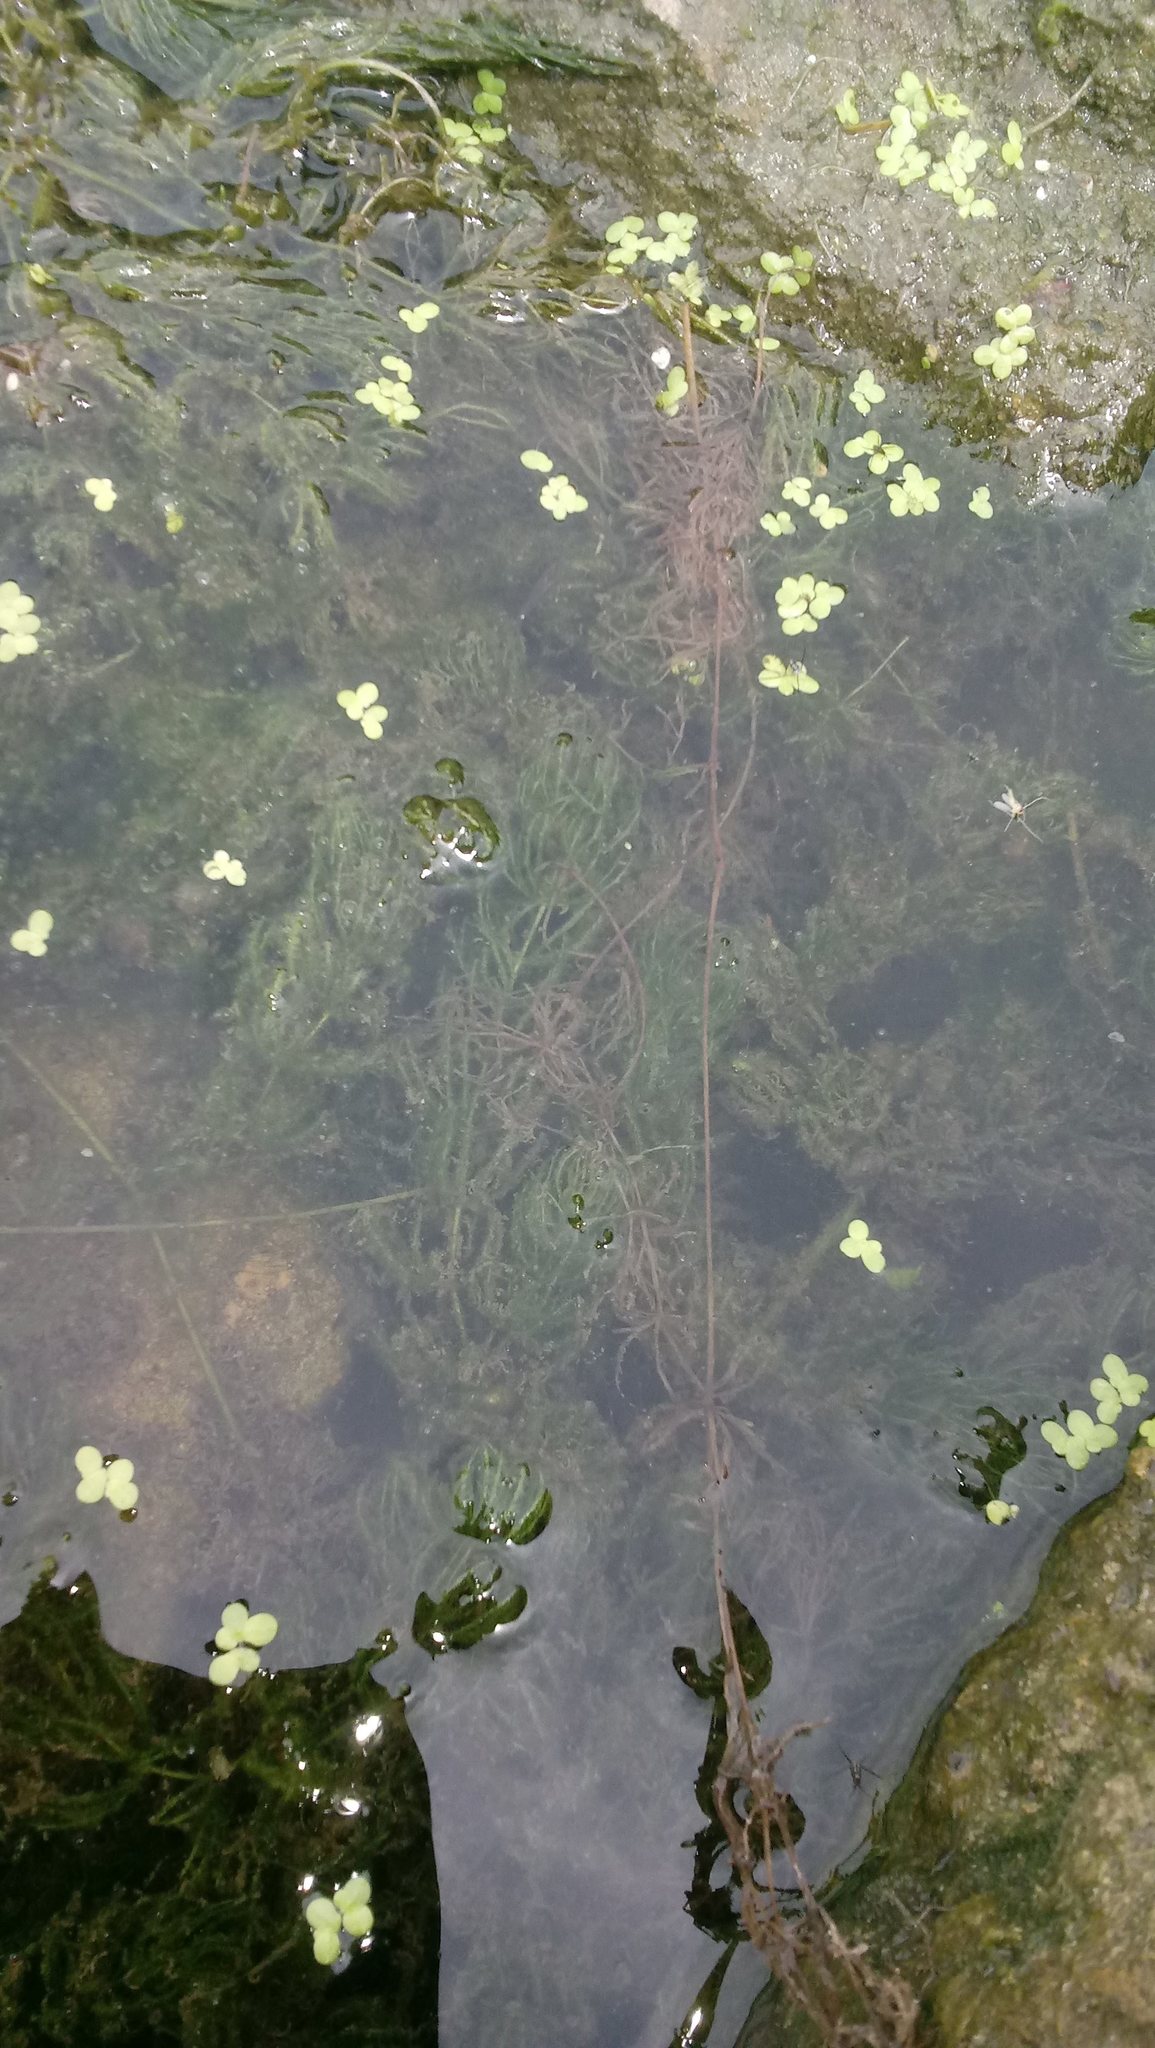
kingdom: Plantae
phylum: Tracheophyta
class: Magnoliopsida
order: Ceratophyllales
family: Ceratophyllaceae
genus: Ceratophyllum
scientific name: Ceratophyllum demersum
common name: Rigid hornwort
